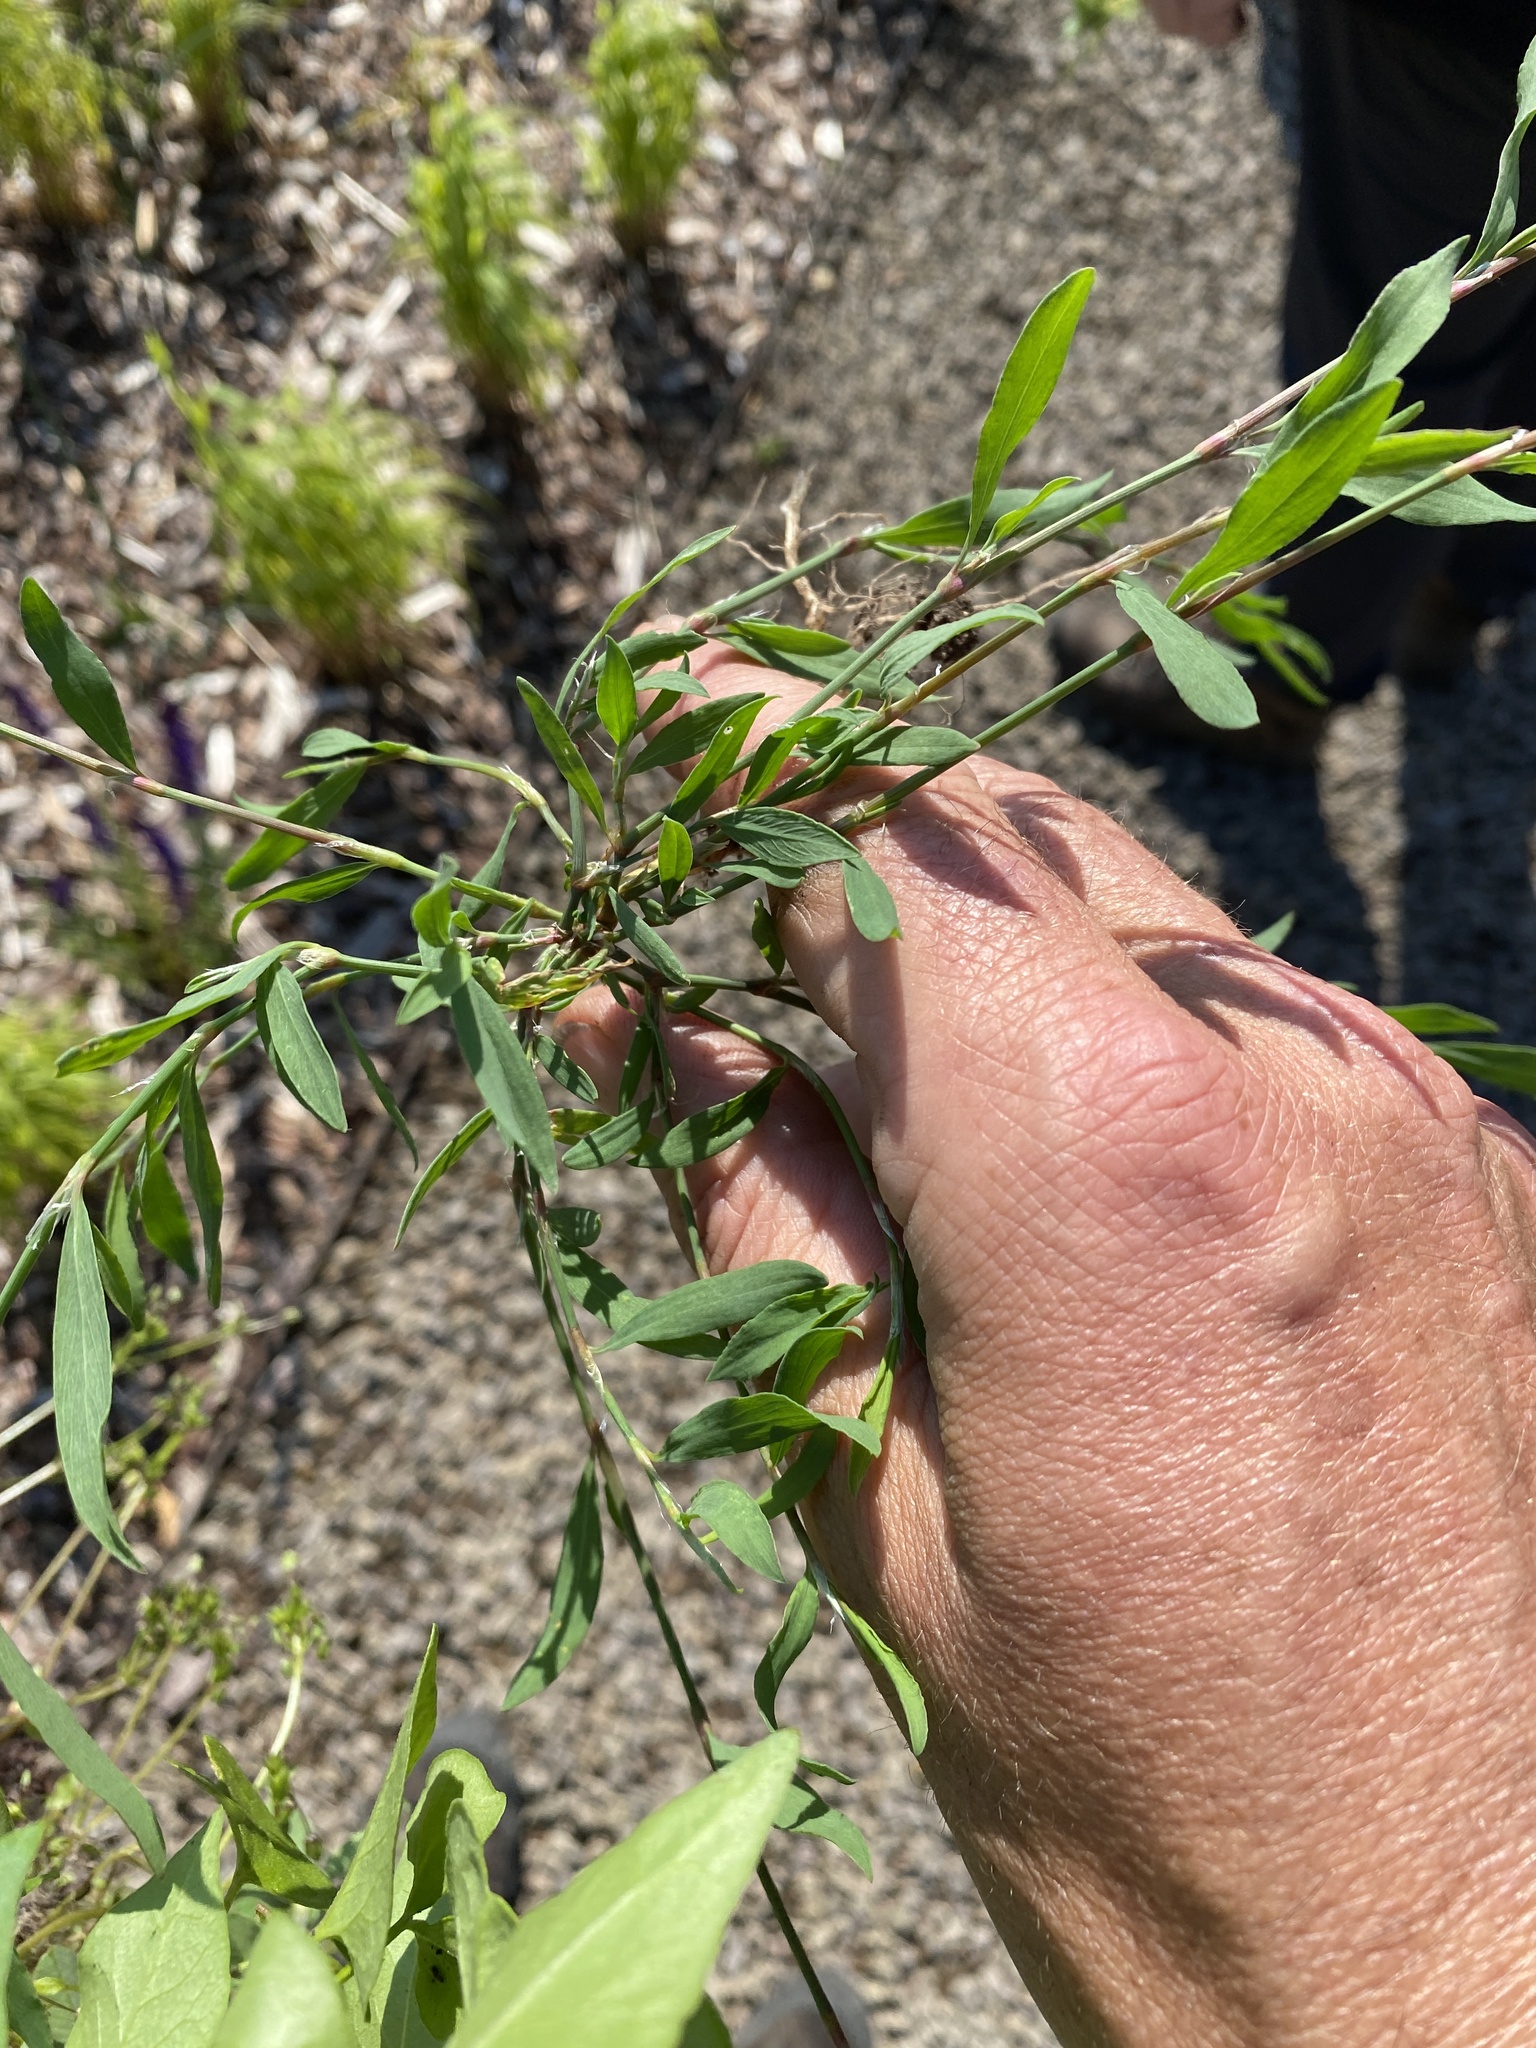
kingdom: Plantae
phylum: Tracheophyta
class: Magnoliopsida
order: Caryophyllales
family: Polygonaceae
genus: Polygonum
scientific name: Polygonum aviculare
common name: Prostrate knotweed
